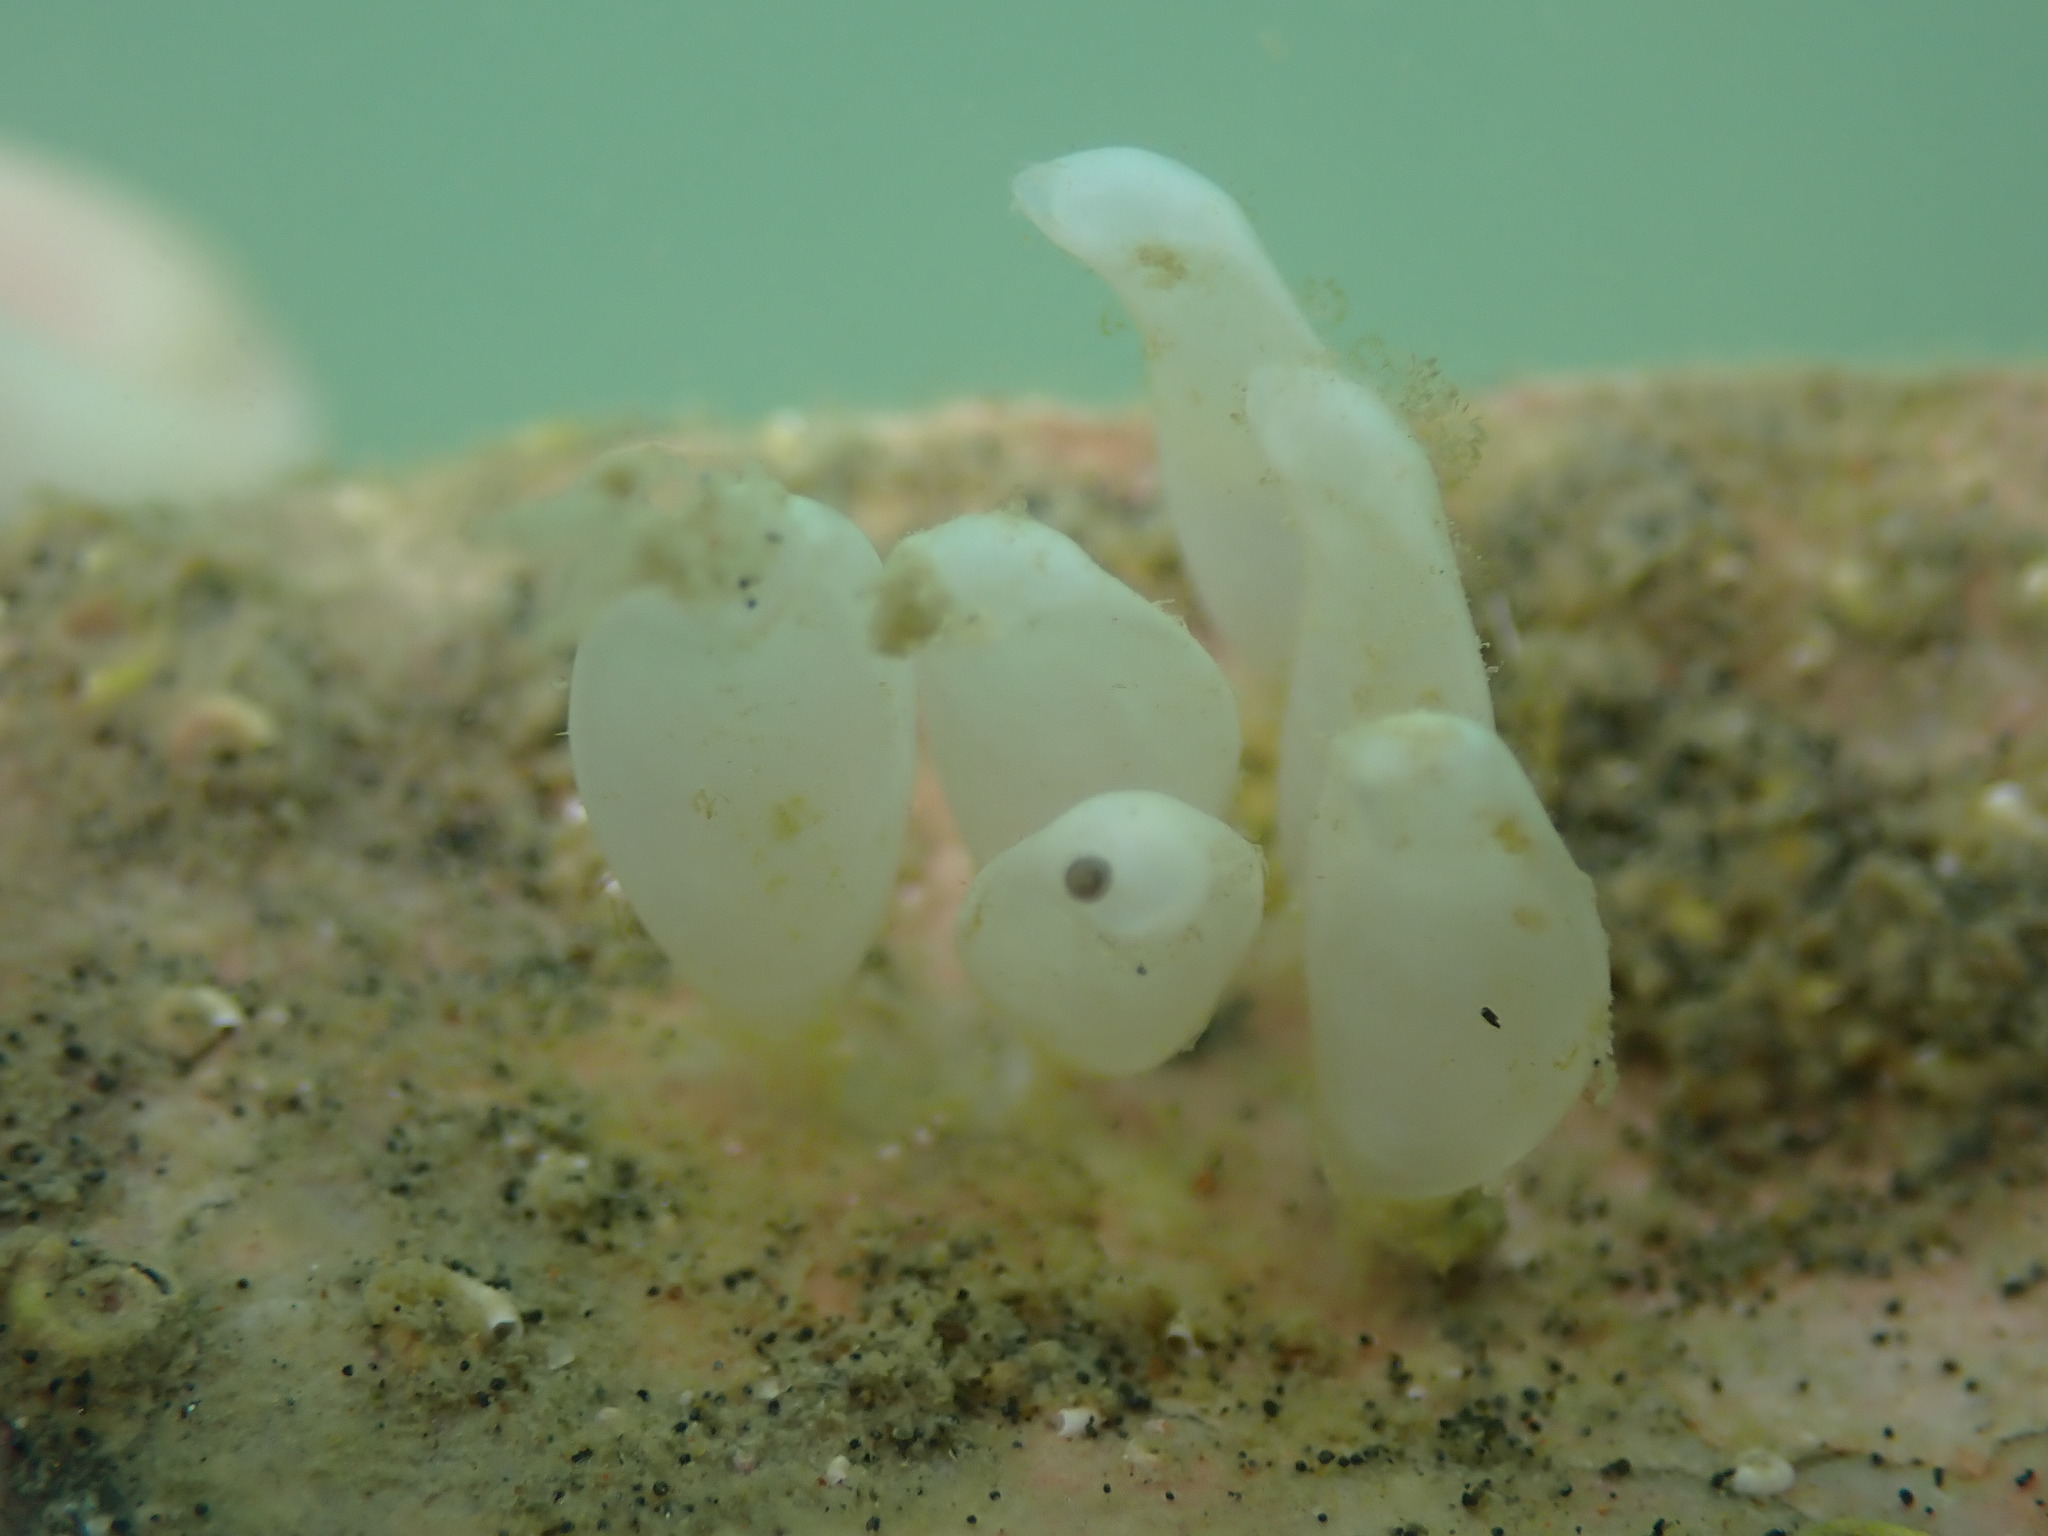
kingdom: Animalia
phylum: Mollusca
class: Gastropoda
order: Neogastropoda
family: Cominellidae
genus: Cominella
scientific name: Cominella adspersa
